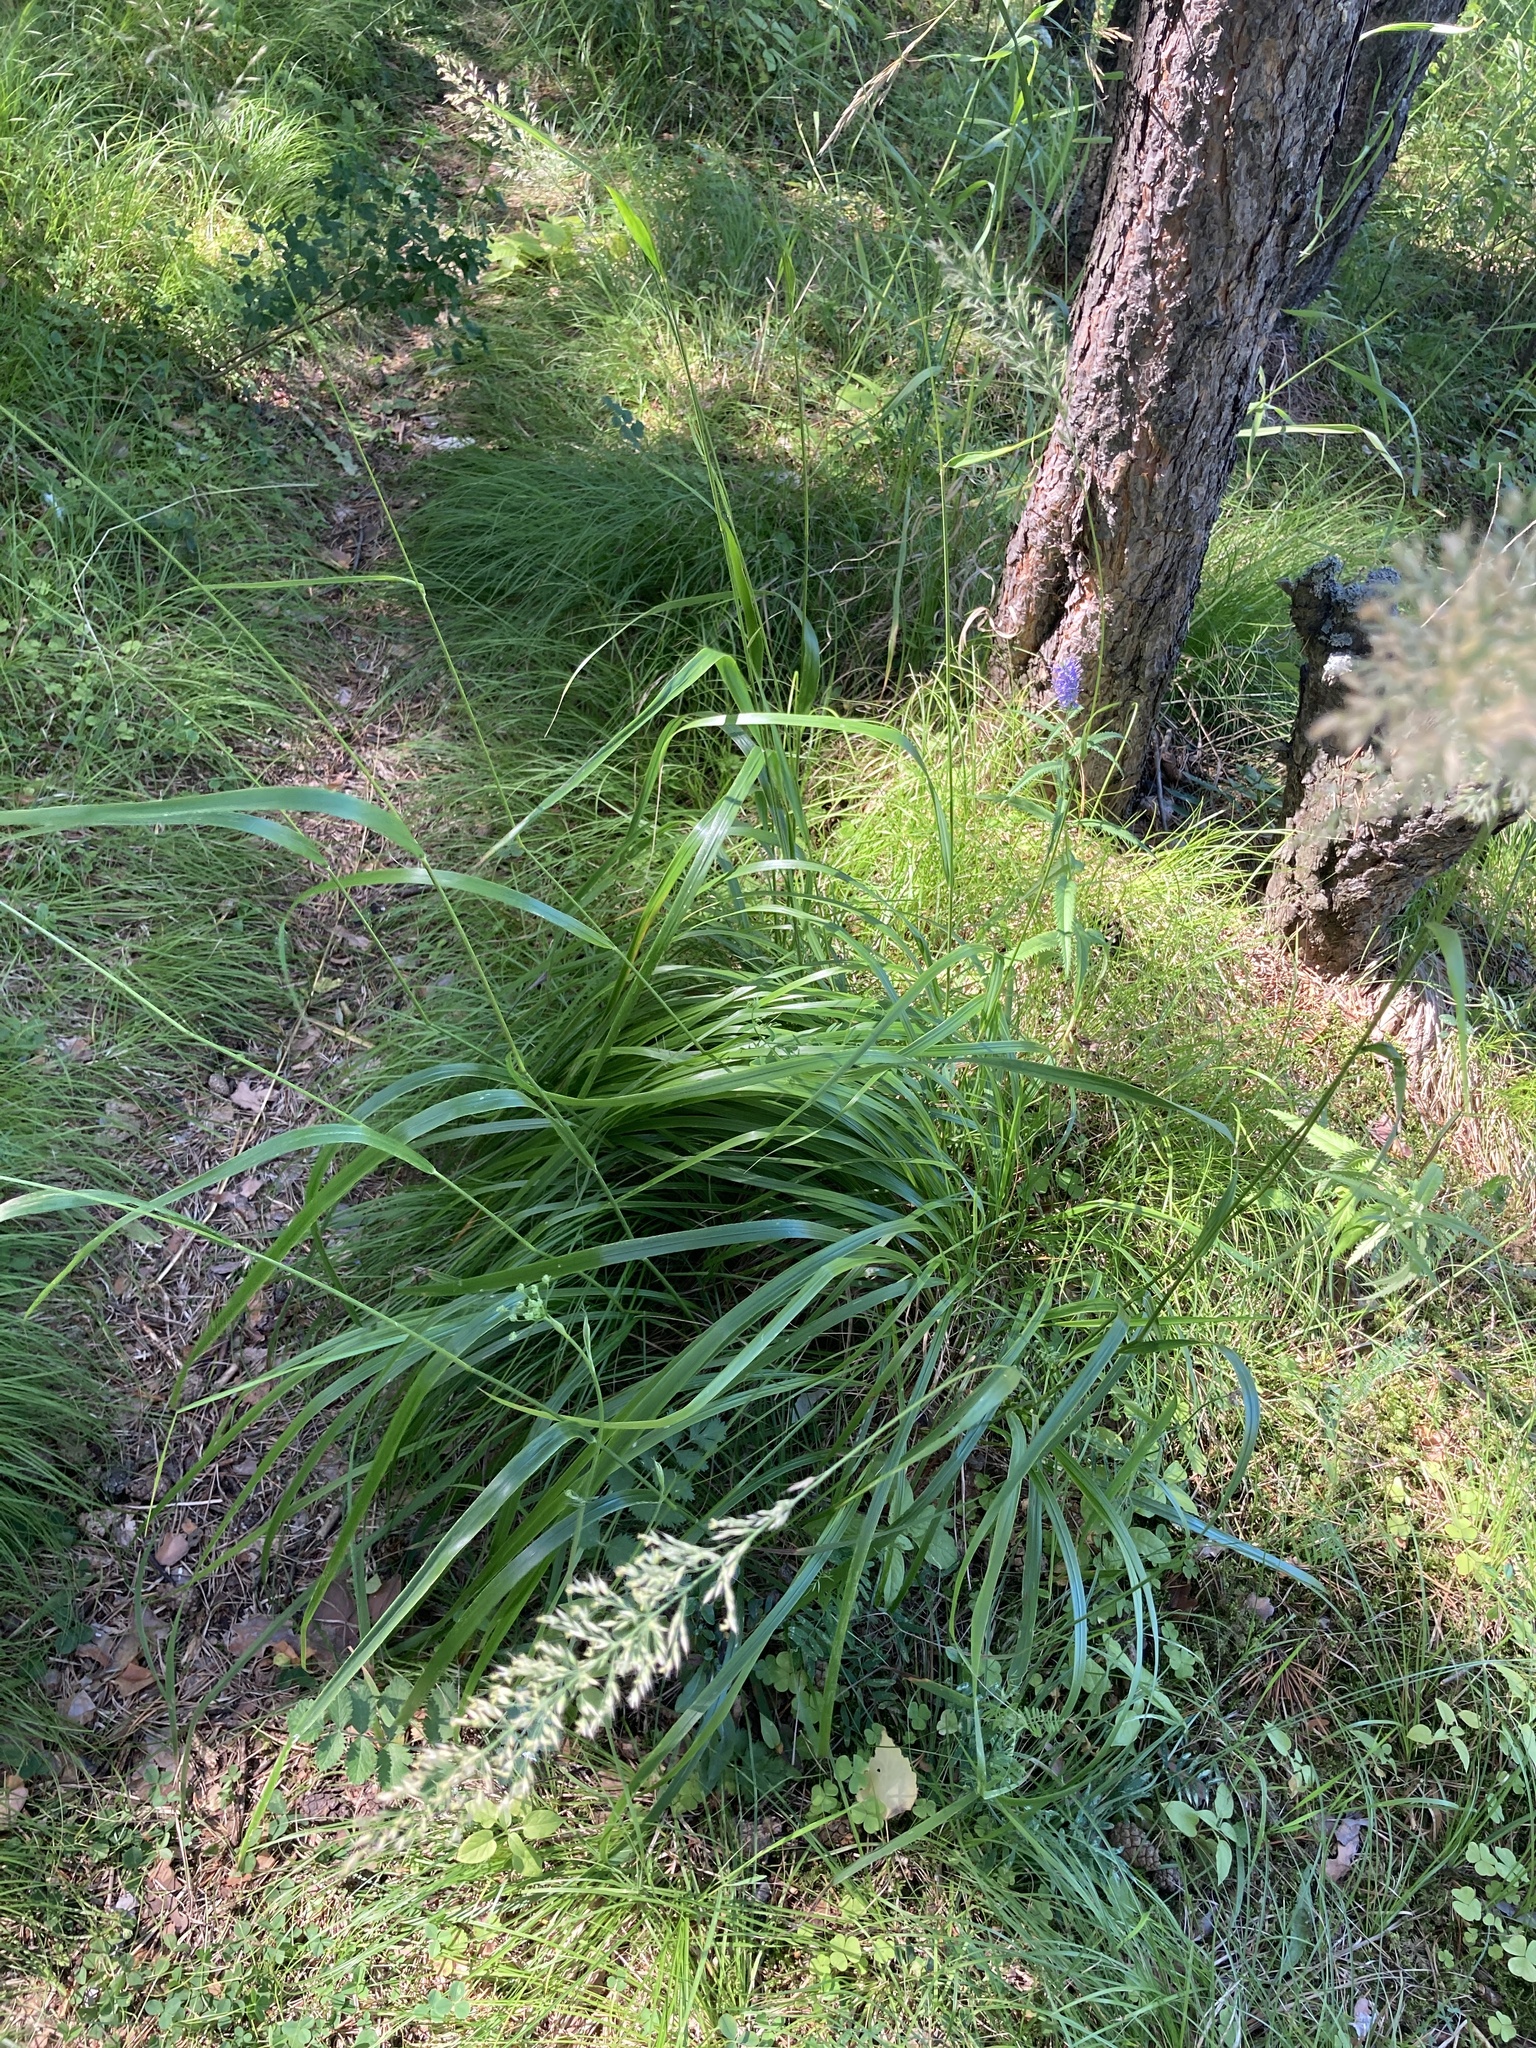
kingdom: Plantae
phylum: Tracheophyta
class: Liliopsida
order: Poales
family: Poaceae
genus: Calamagrostis
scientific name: Calamagrostis arundinacea
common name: Metskastik
